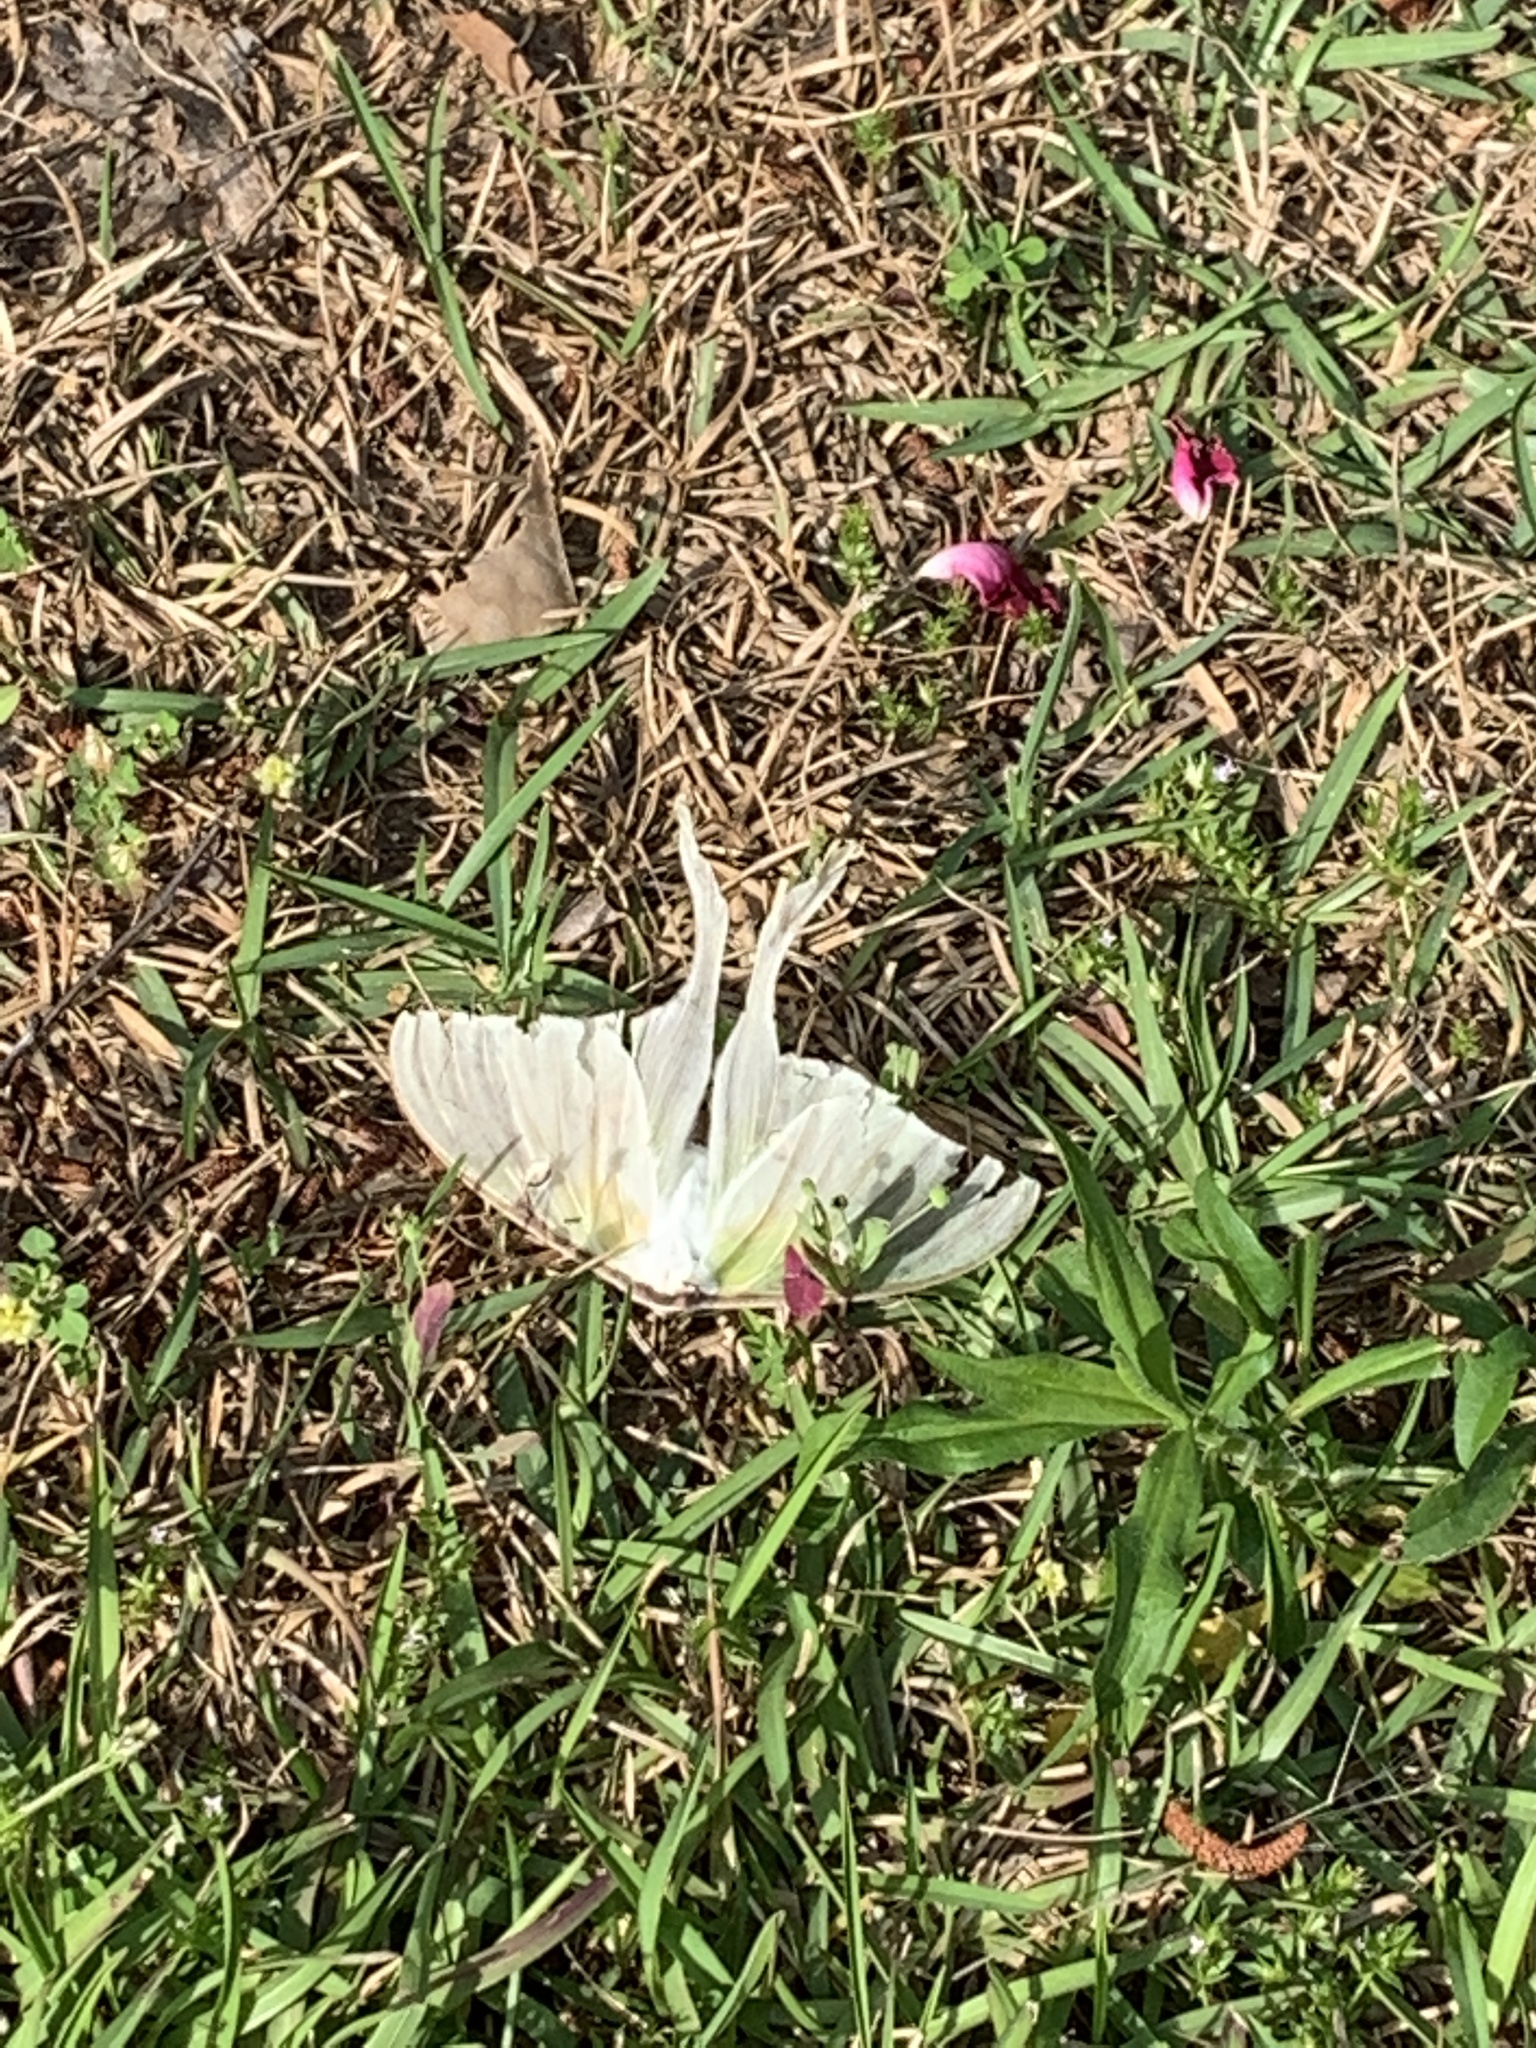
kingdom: Animalia
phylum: Arthropoda
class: Insecta
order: Lepidoptera
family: Saturniidae
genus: Actias
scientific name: Actias luna
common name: Luna moth
